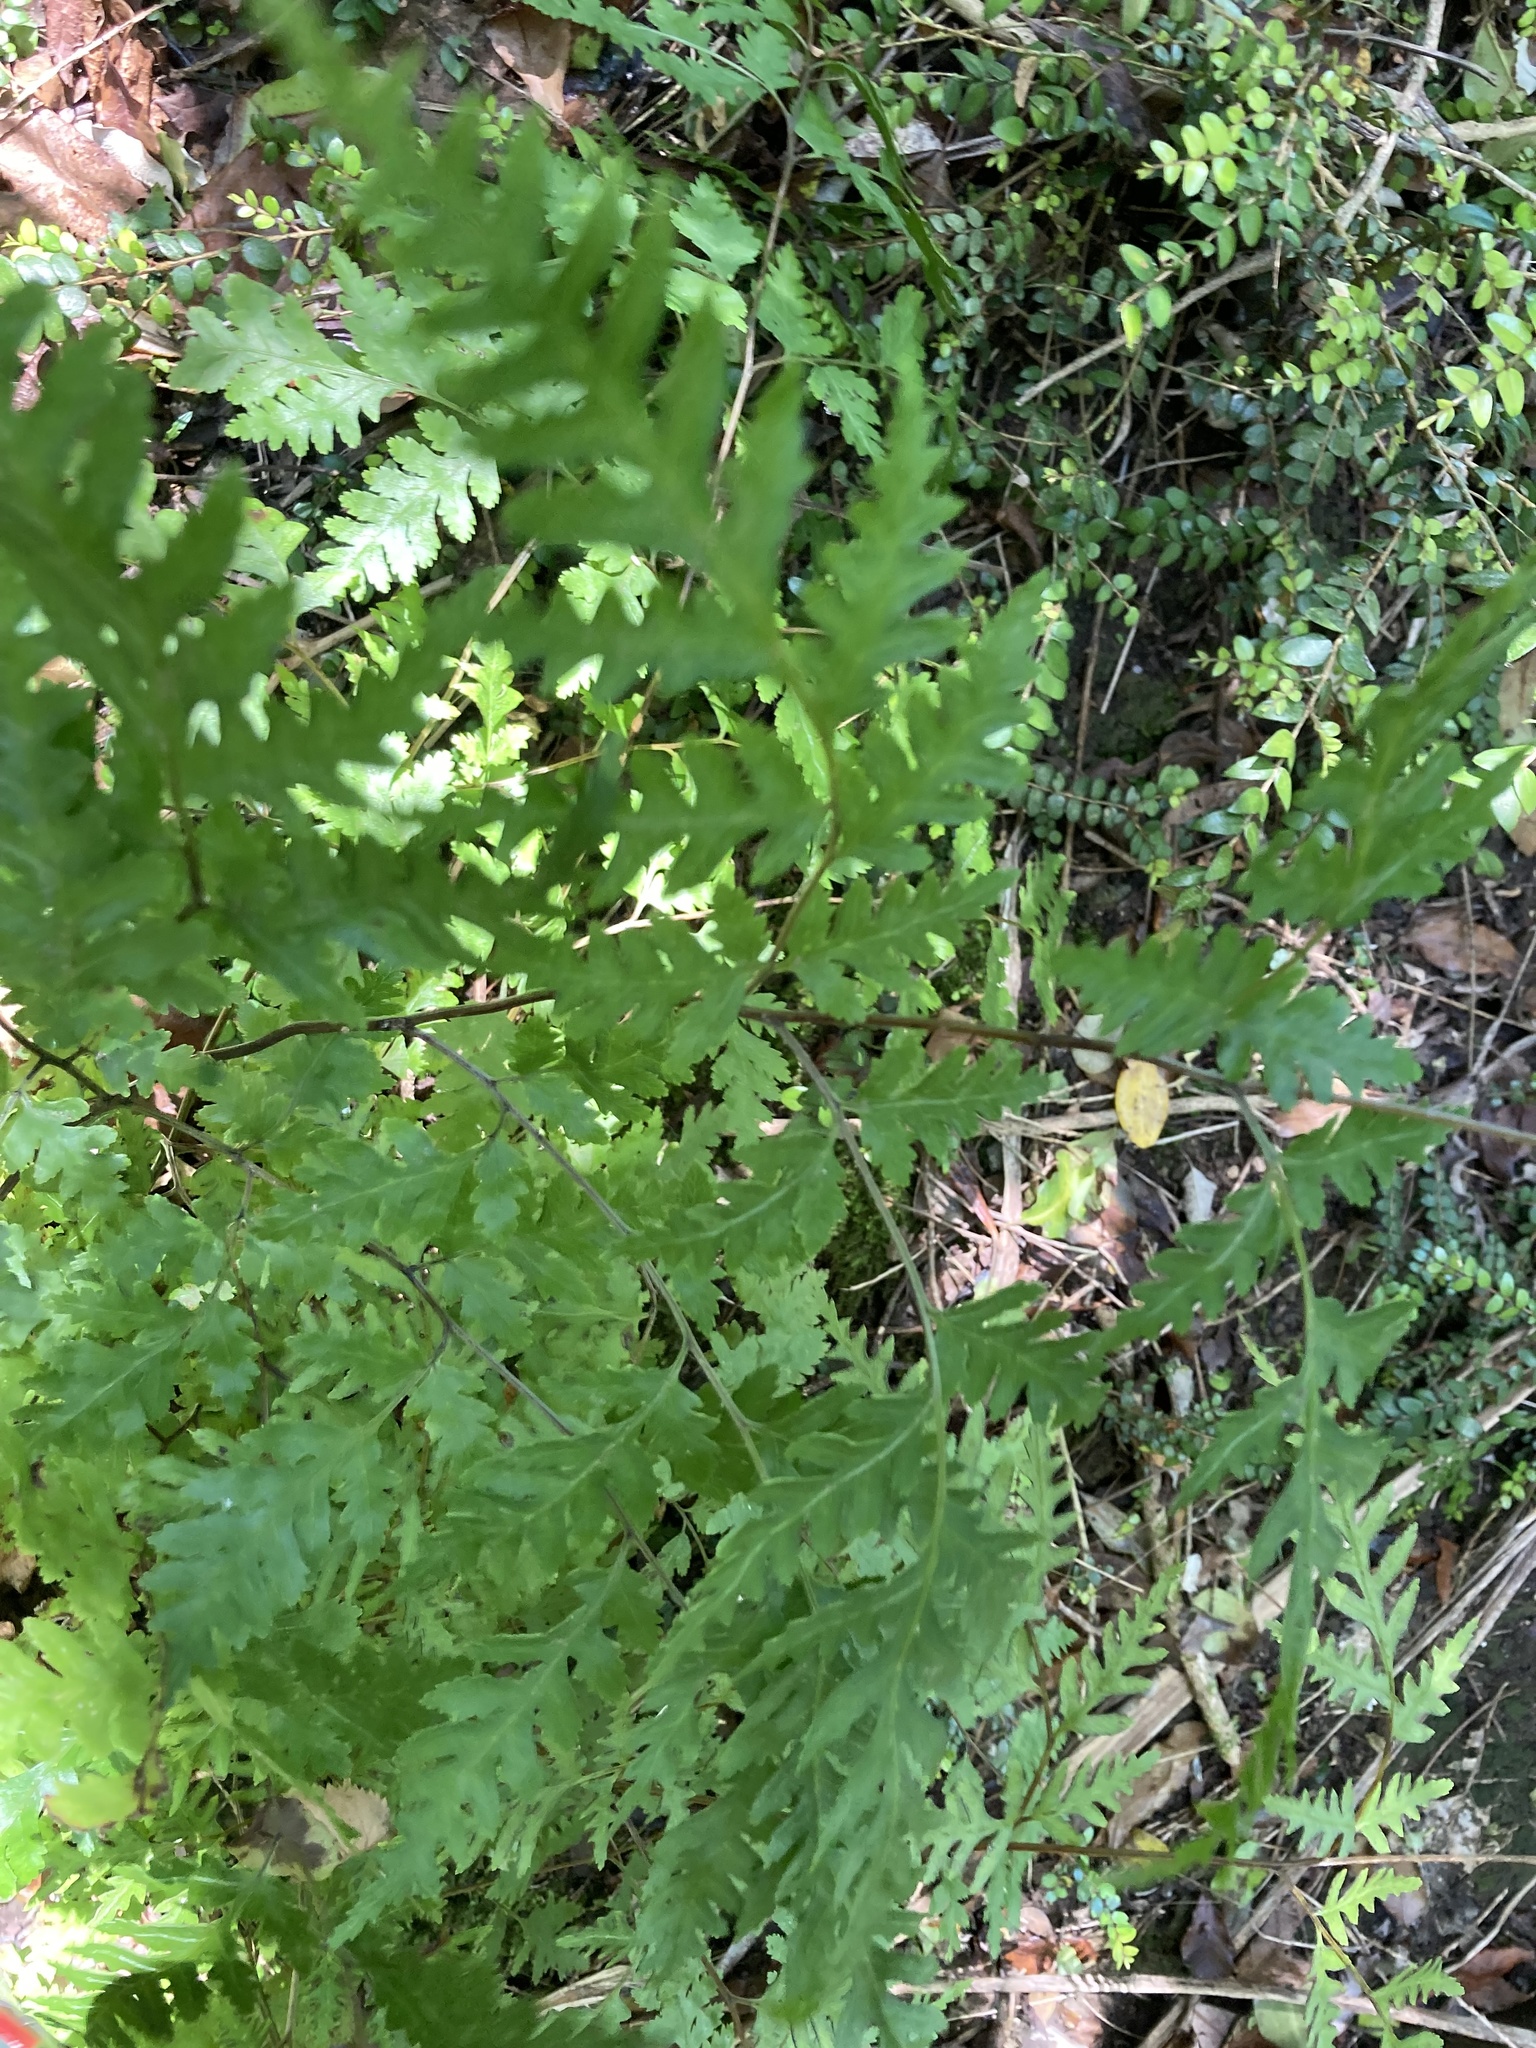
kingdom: Plantae
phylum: Tracheophyta
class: Polypodiopsida
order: Polypodiales
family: Pteridaceae
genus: Pteris
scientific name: Pteris macilenta
